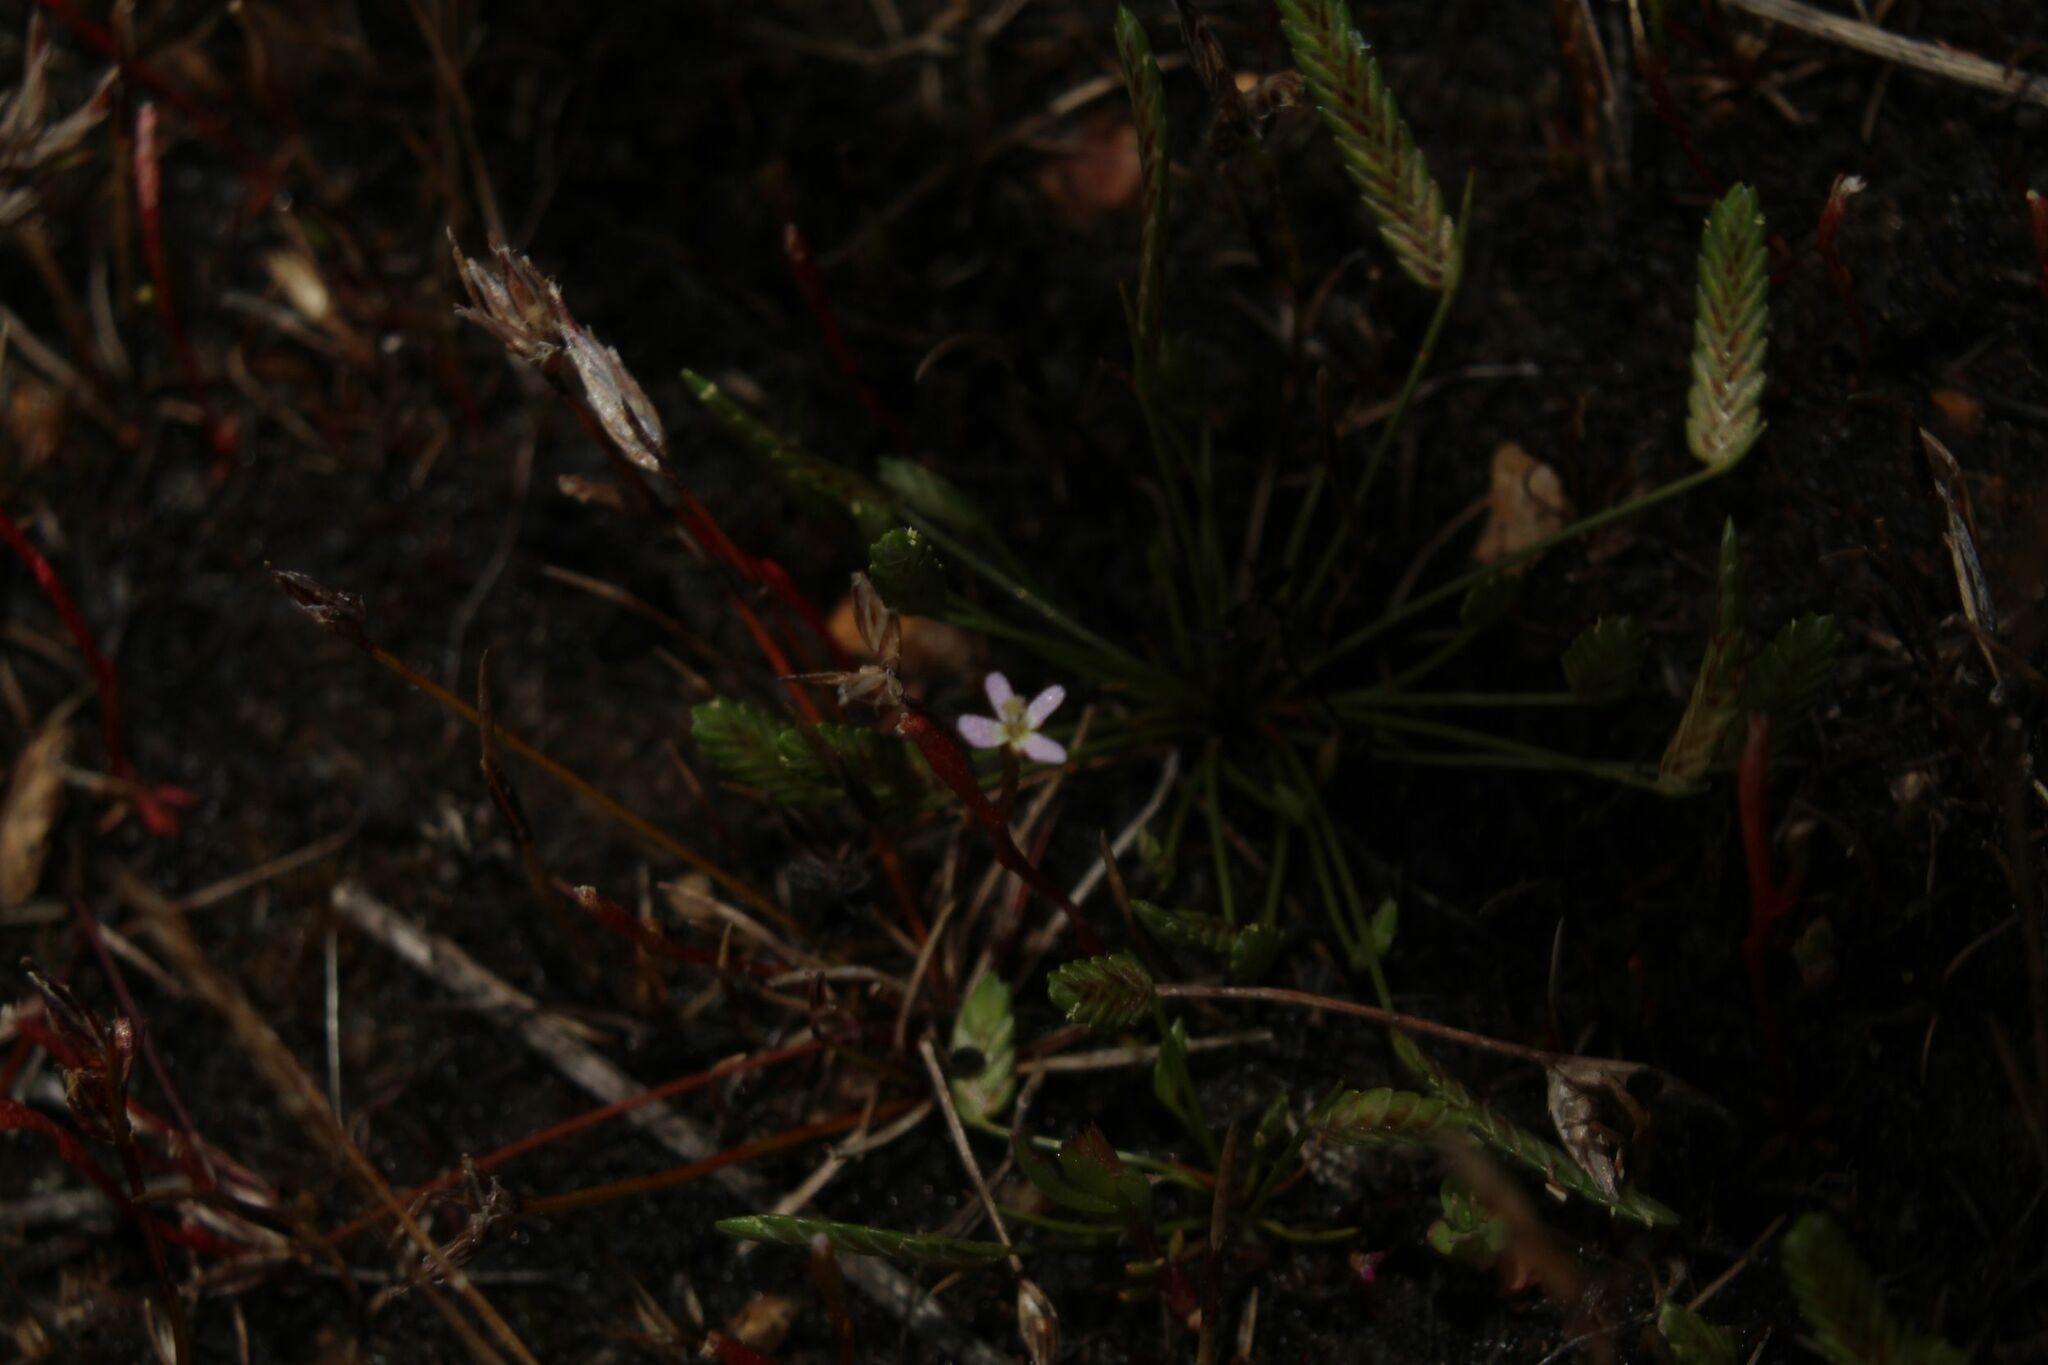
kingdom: Plantae
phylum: Tracheophyta
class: Magnoliopsida
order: Asterales
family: Stylidiaceae
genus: Stylidium
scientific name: Stylidium despectum
